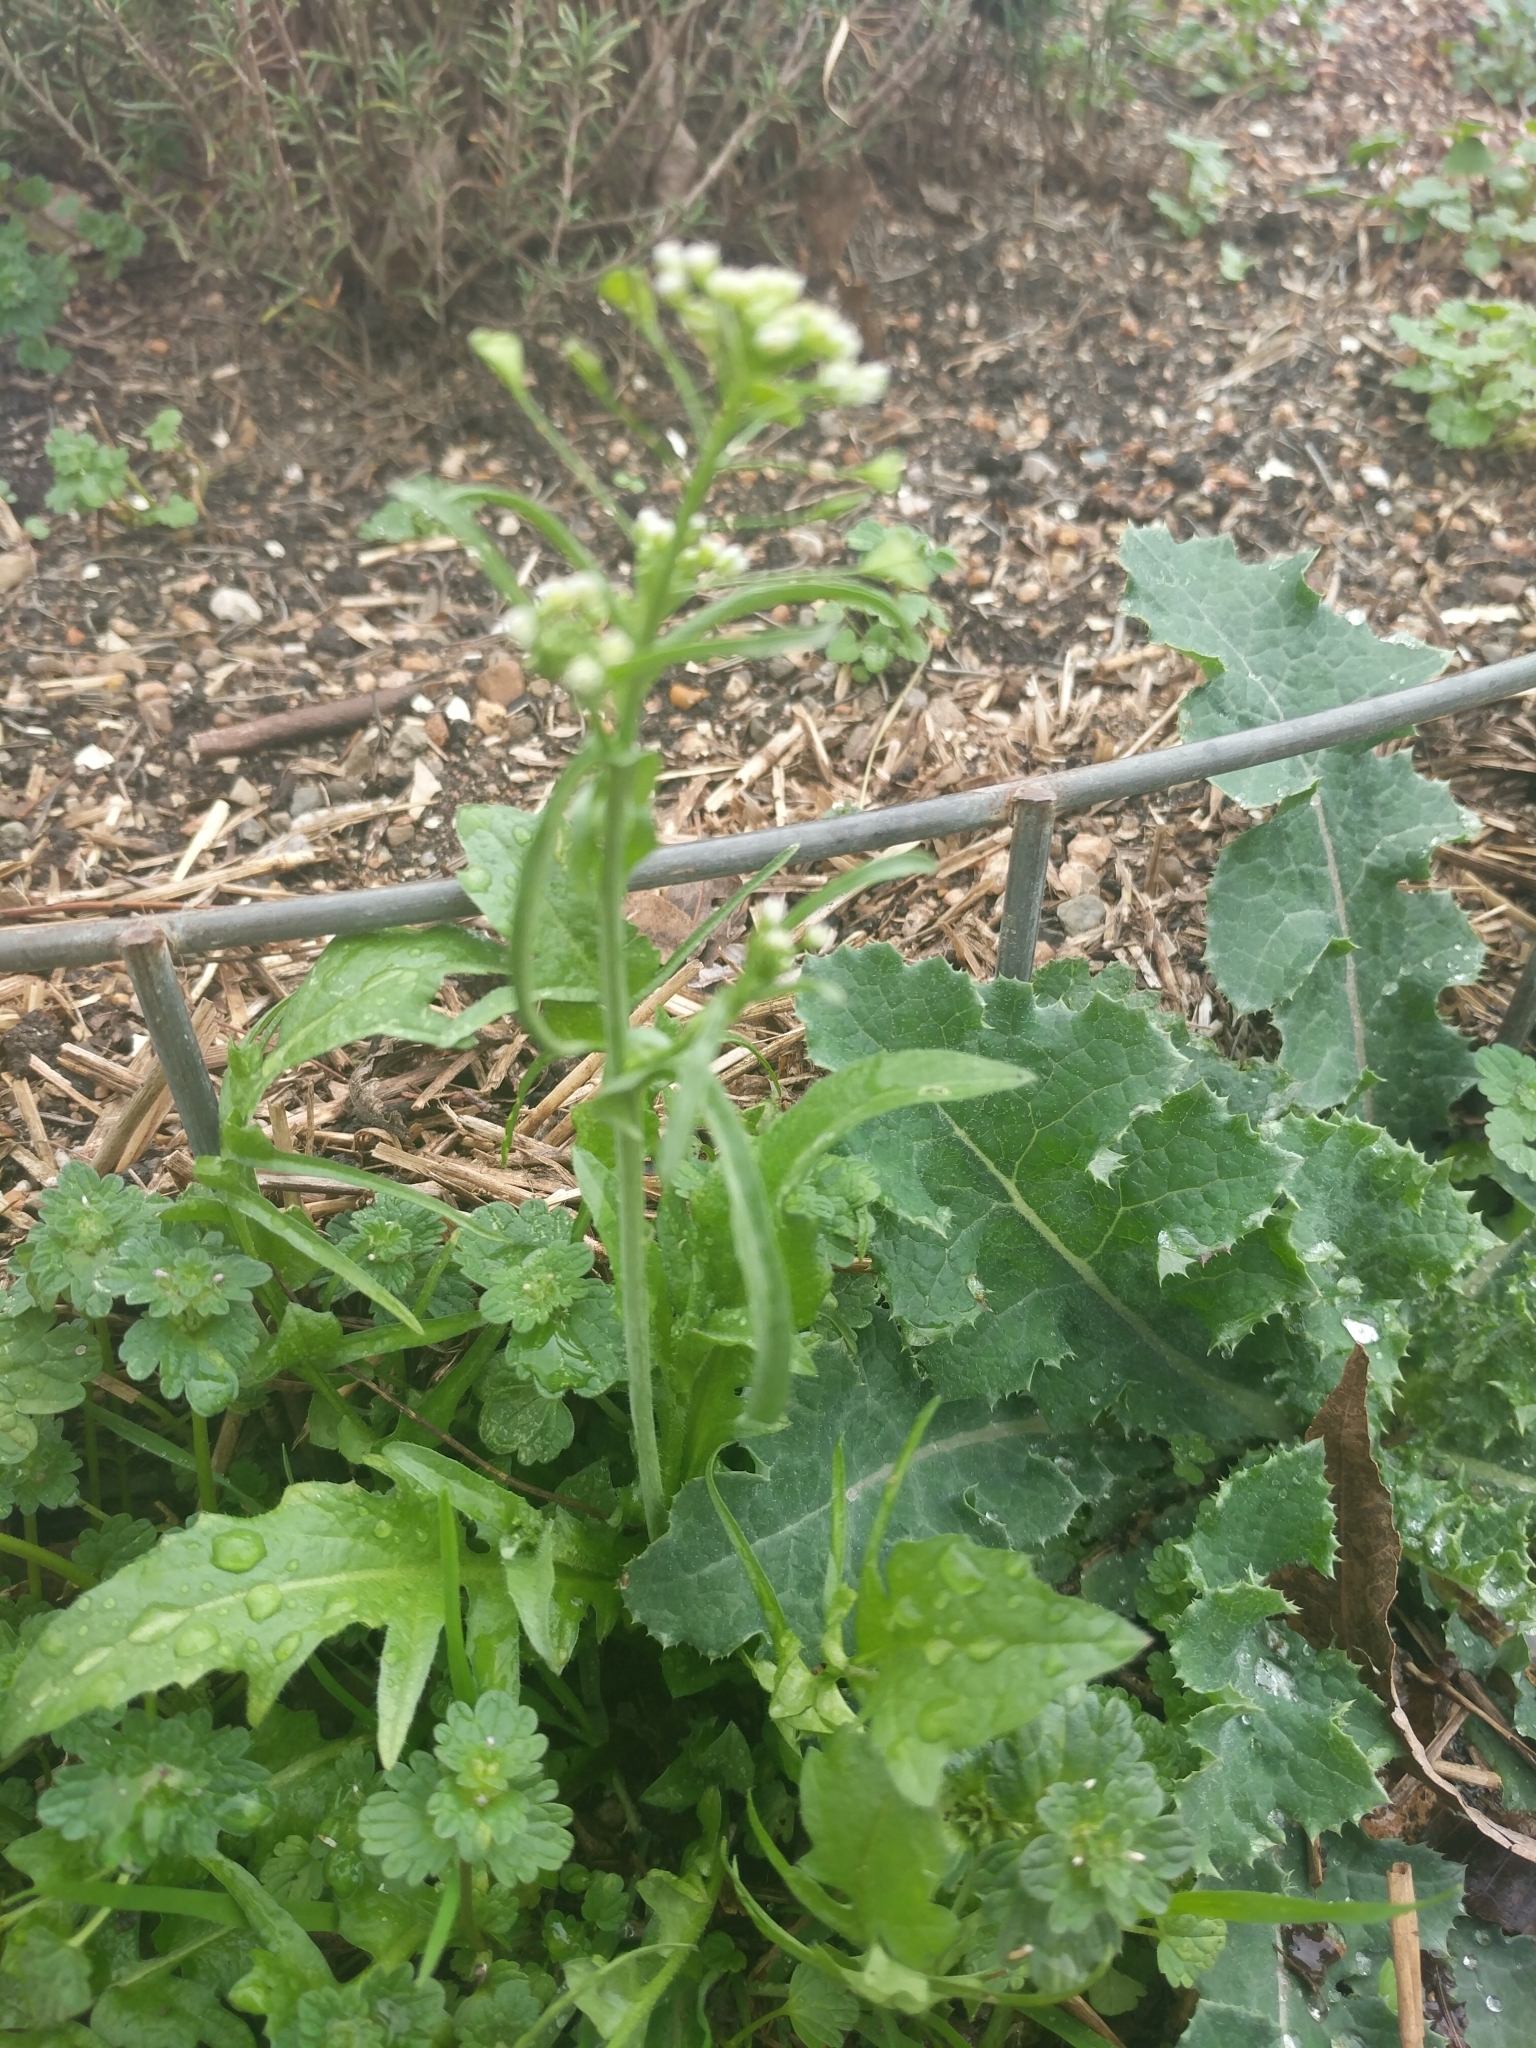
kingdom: Plantae
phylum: Tracheophyta
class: Magnoliopsida
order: Brassicales
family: Brassicaceae
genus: Capsella
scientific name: Capsella bursa-pastoris
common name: Shepherd's purse
